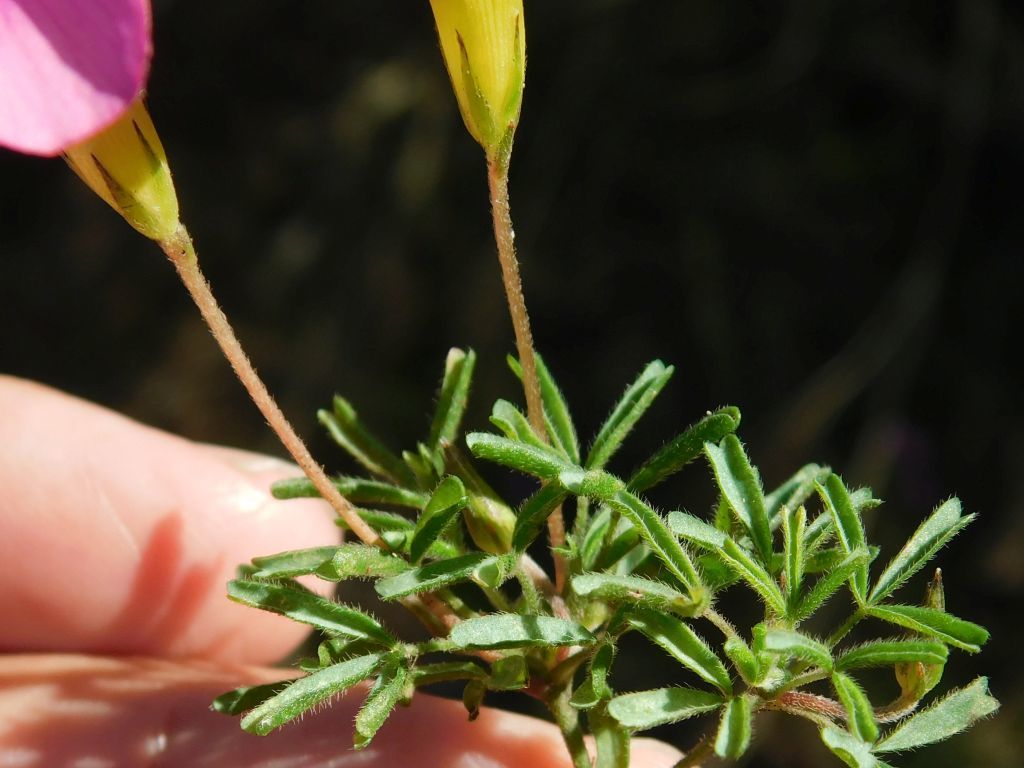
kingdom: Plantae
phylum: Tracheophyta
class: Magnoliopsida
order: Oxalidales
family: Oxalidaceae
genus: Oxalis
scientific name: Oxalis glabra
